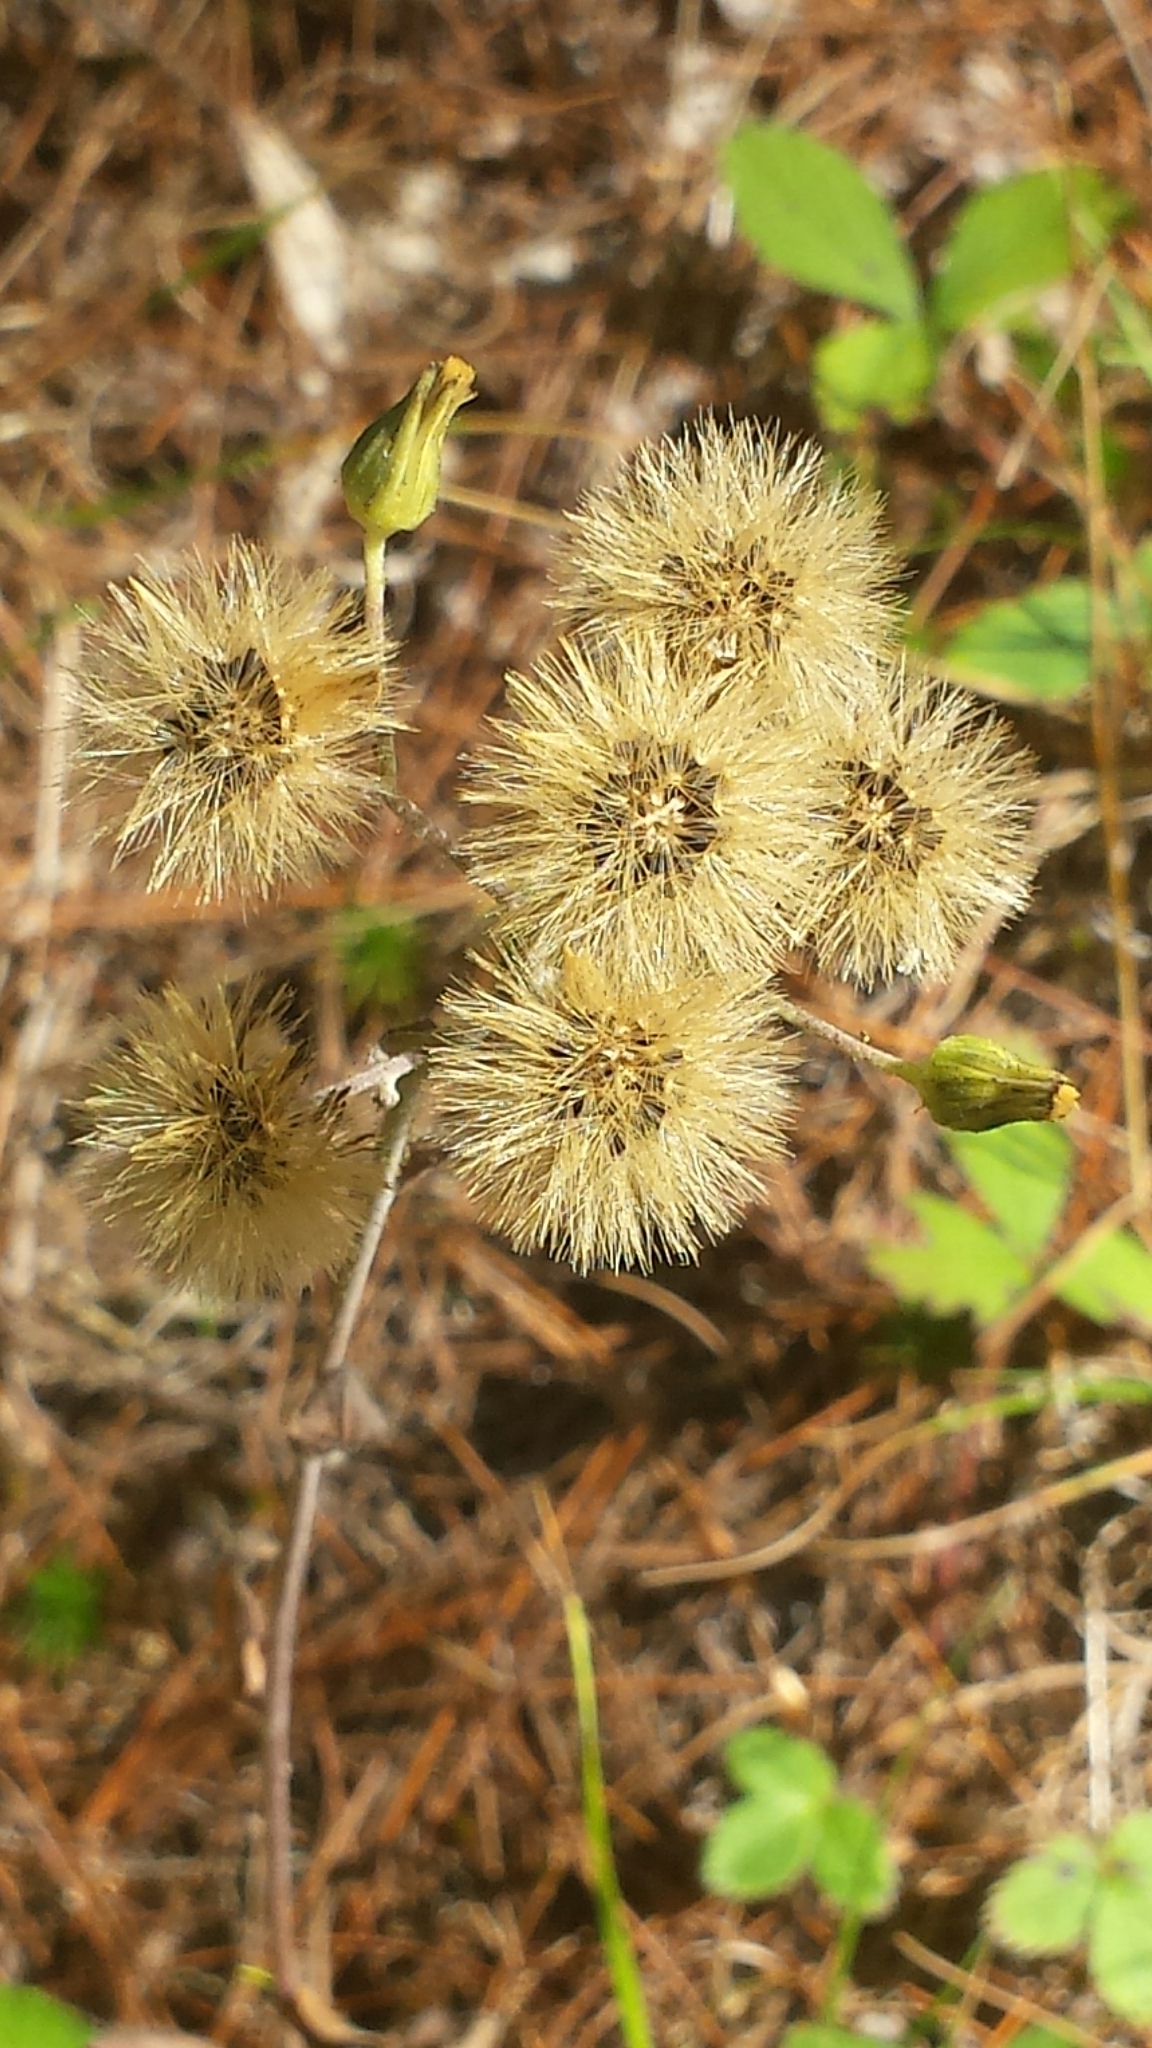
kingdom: Plantae
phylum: Tracheophyta
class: Magnoliopsida
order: Asterales
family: Asteraceae
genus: Hieracium
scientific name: Hieracium scabrum
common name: Rough hawkweed
